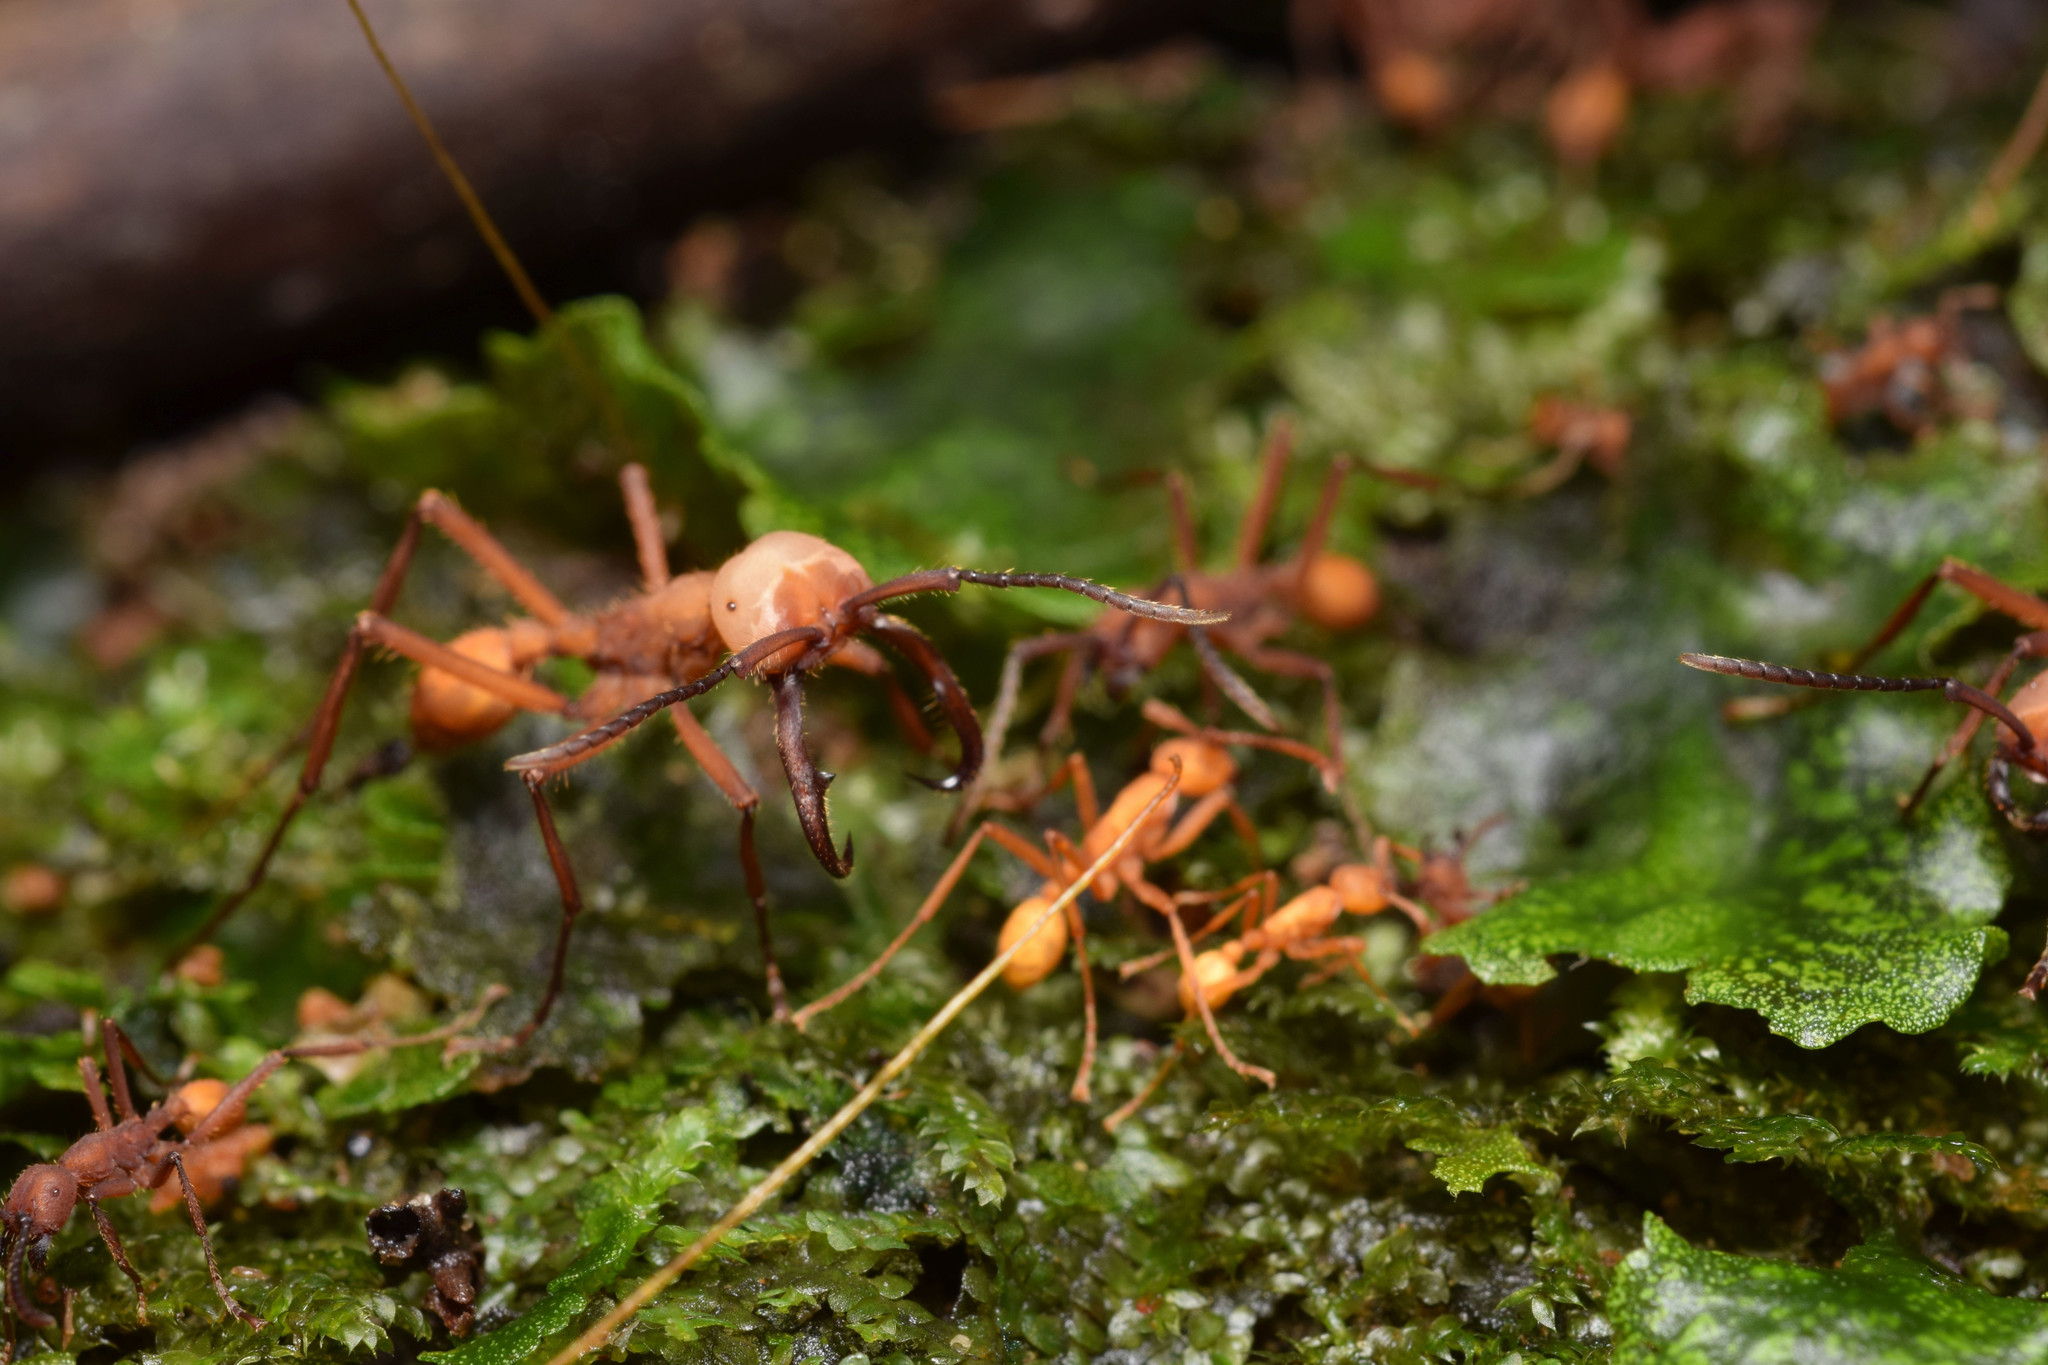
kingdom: Animalia
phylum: Arthropoda
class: Insecta
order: Hymenoptera
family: Formicidae
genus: Eciton
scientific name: Eciton lucanoides
